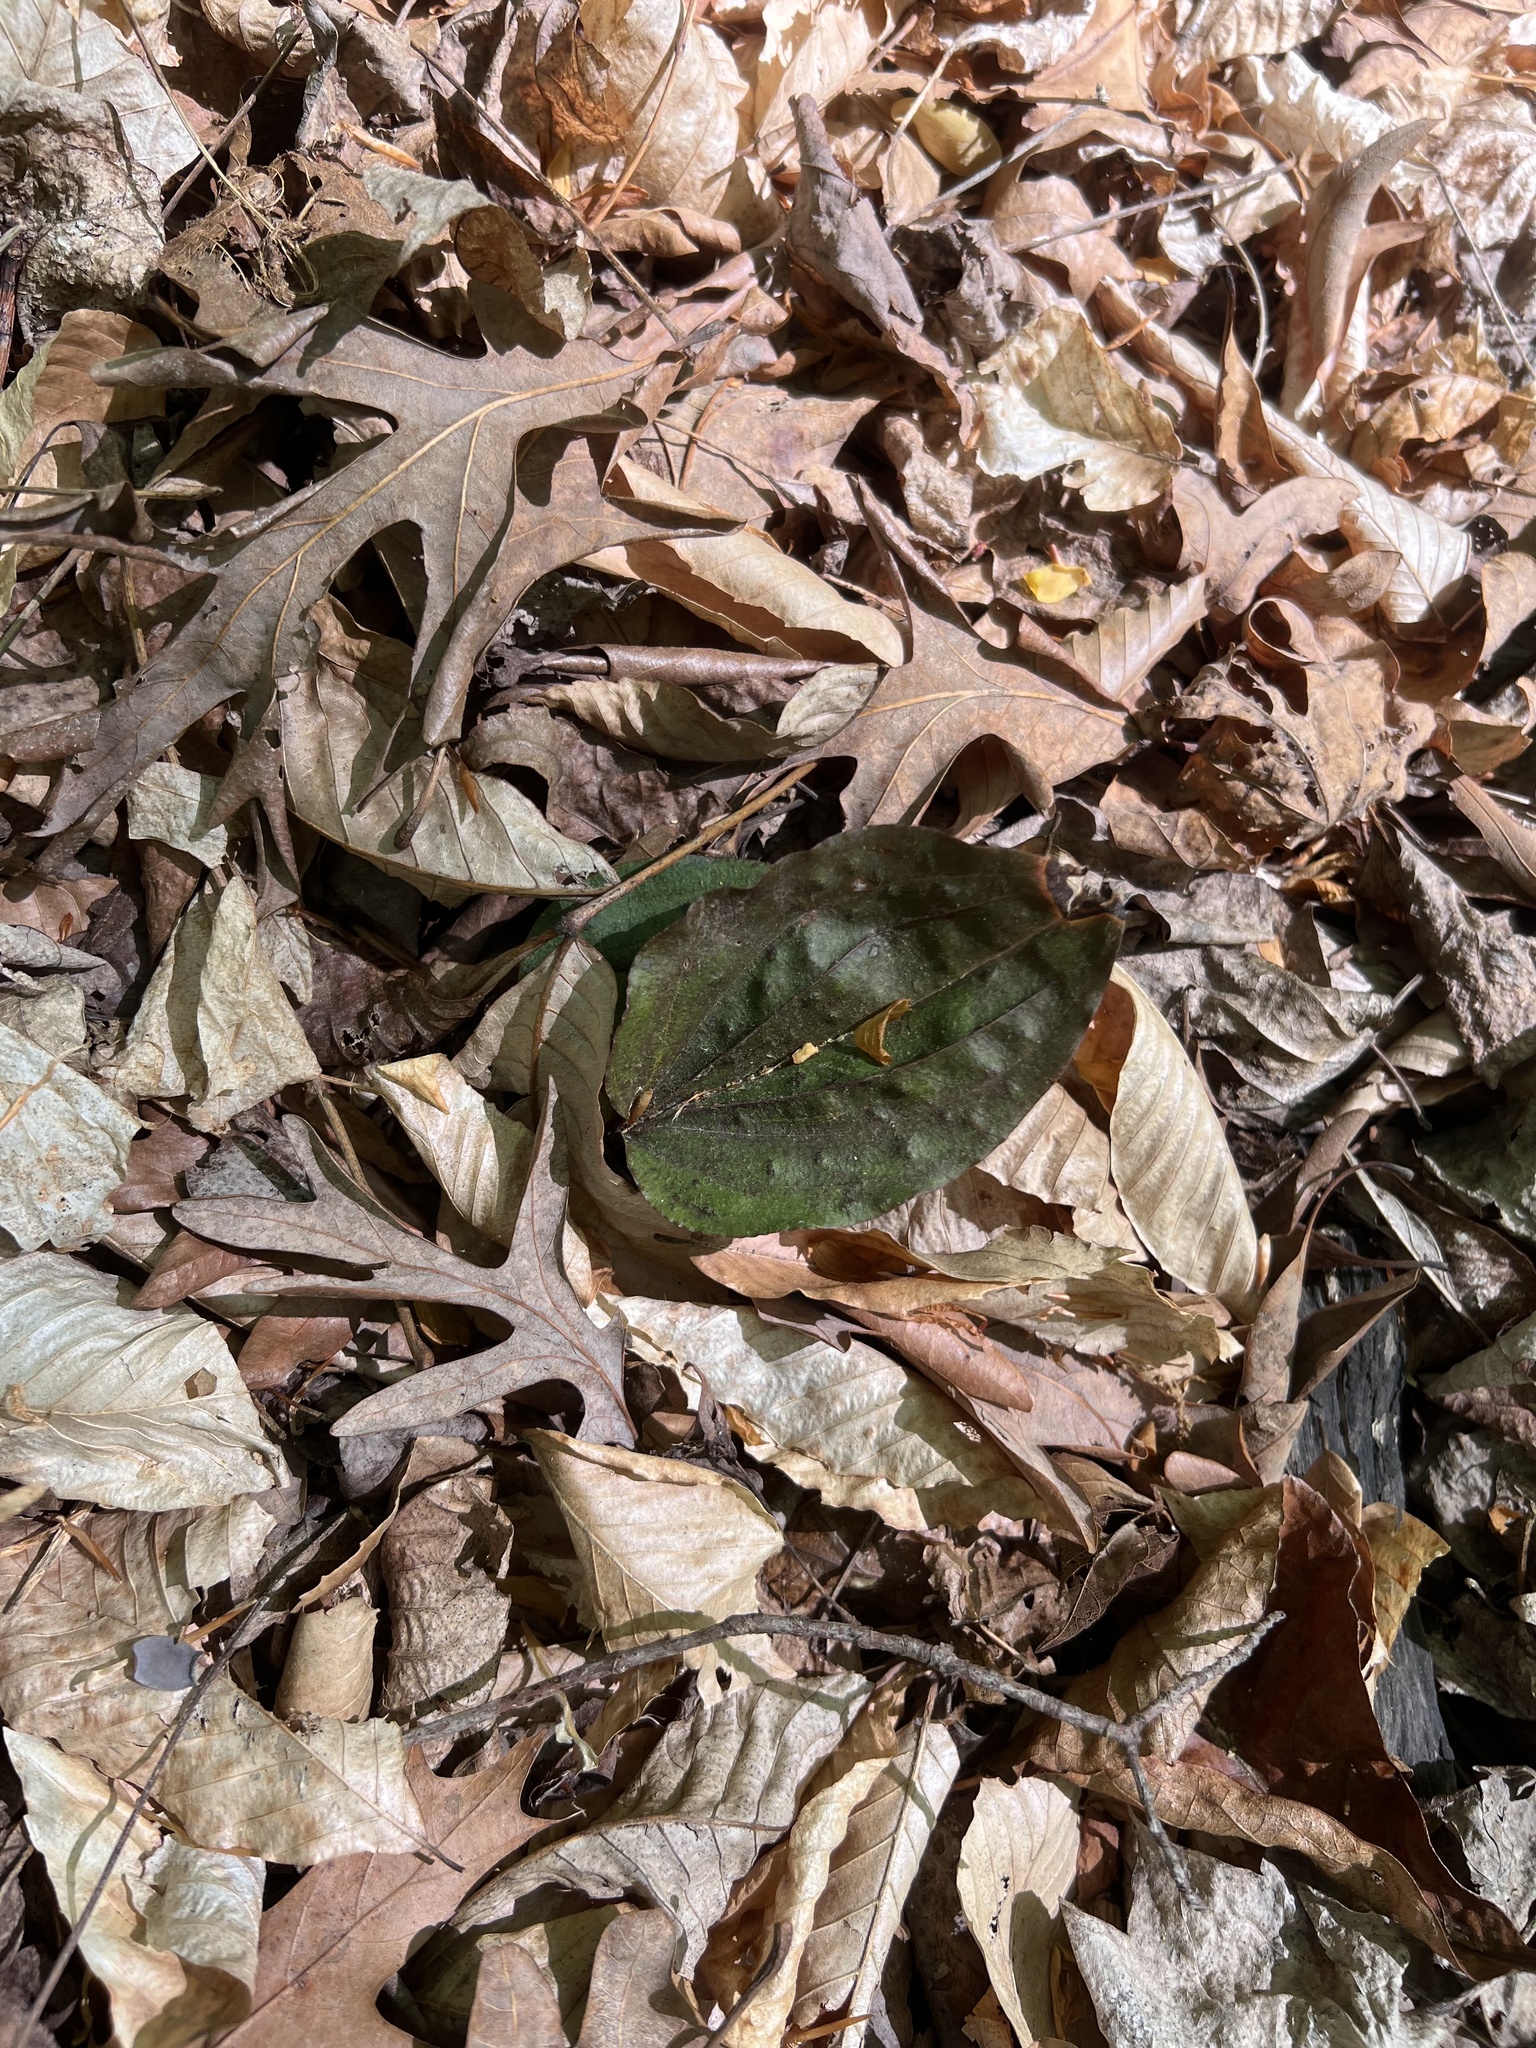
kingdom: Plantae
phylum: Tracheophyta
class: Liliopsida
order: Asparagales
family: Orchidaceae
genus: Tipularia
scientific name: Tipularia discolor
